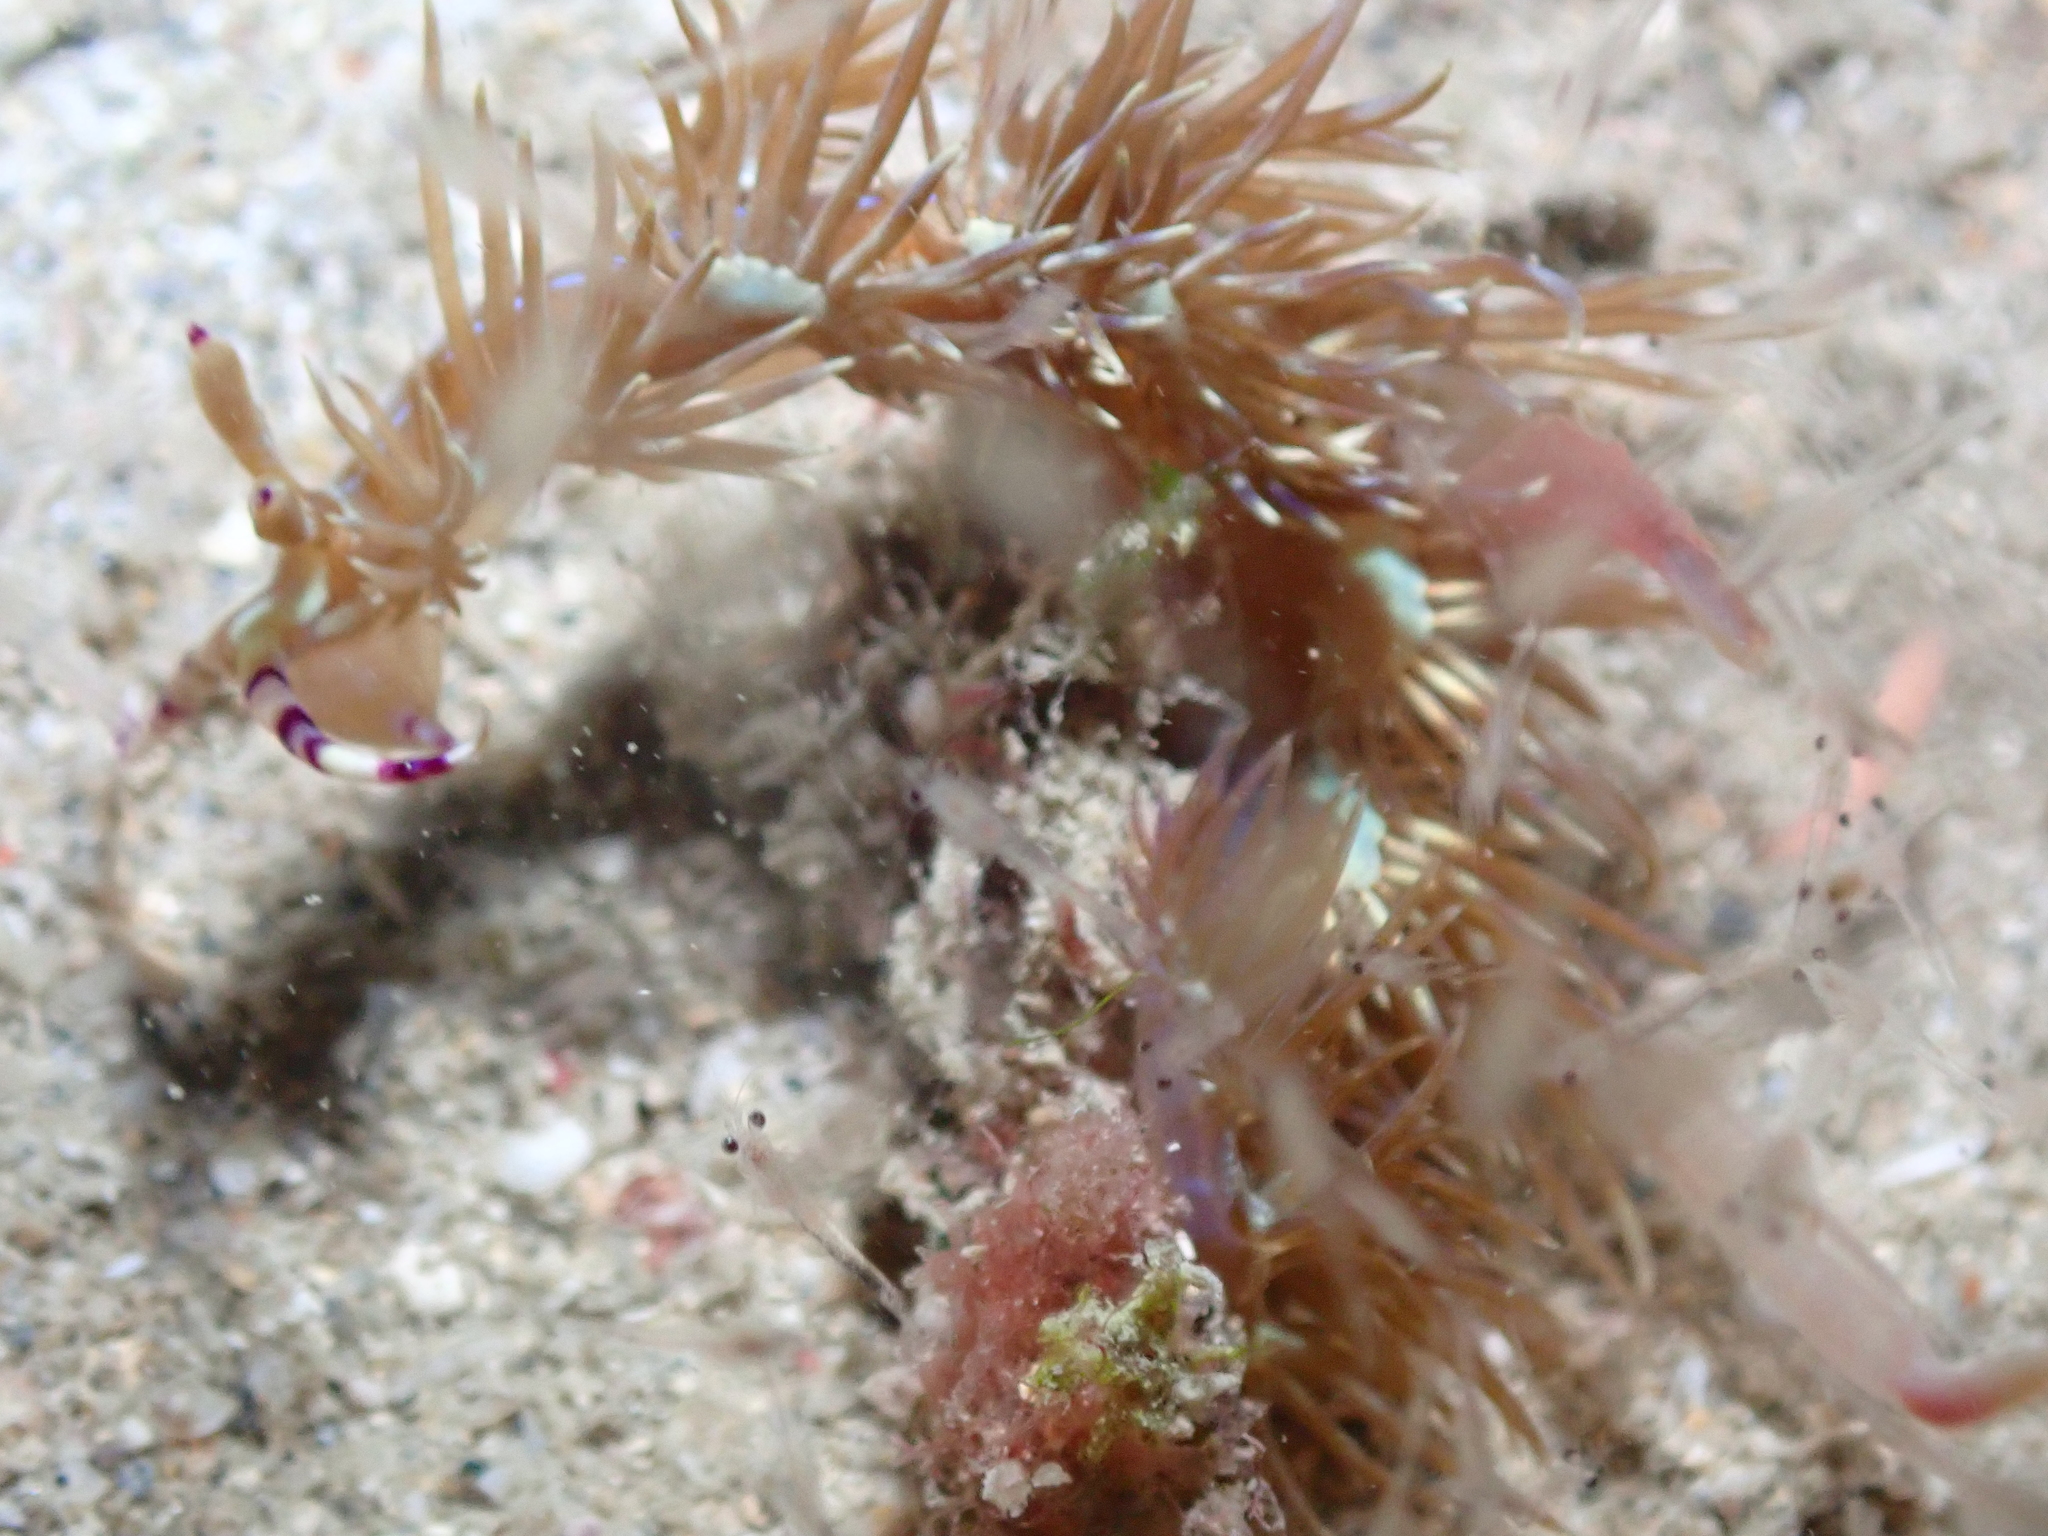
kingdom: Animalia
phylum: Mollusca
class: Gastropoda
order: Nudibranchia
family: Facelinidae
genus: Pteraeolidia
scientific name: Pteraeolidia semperi
